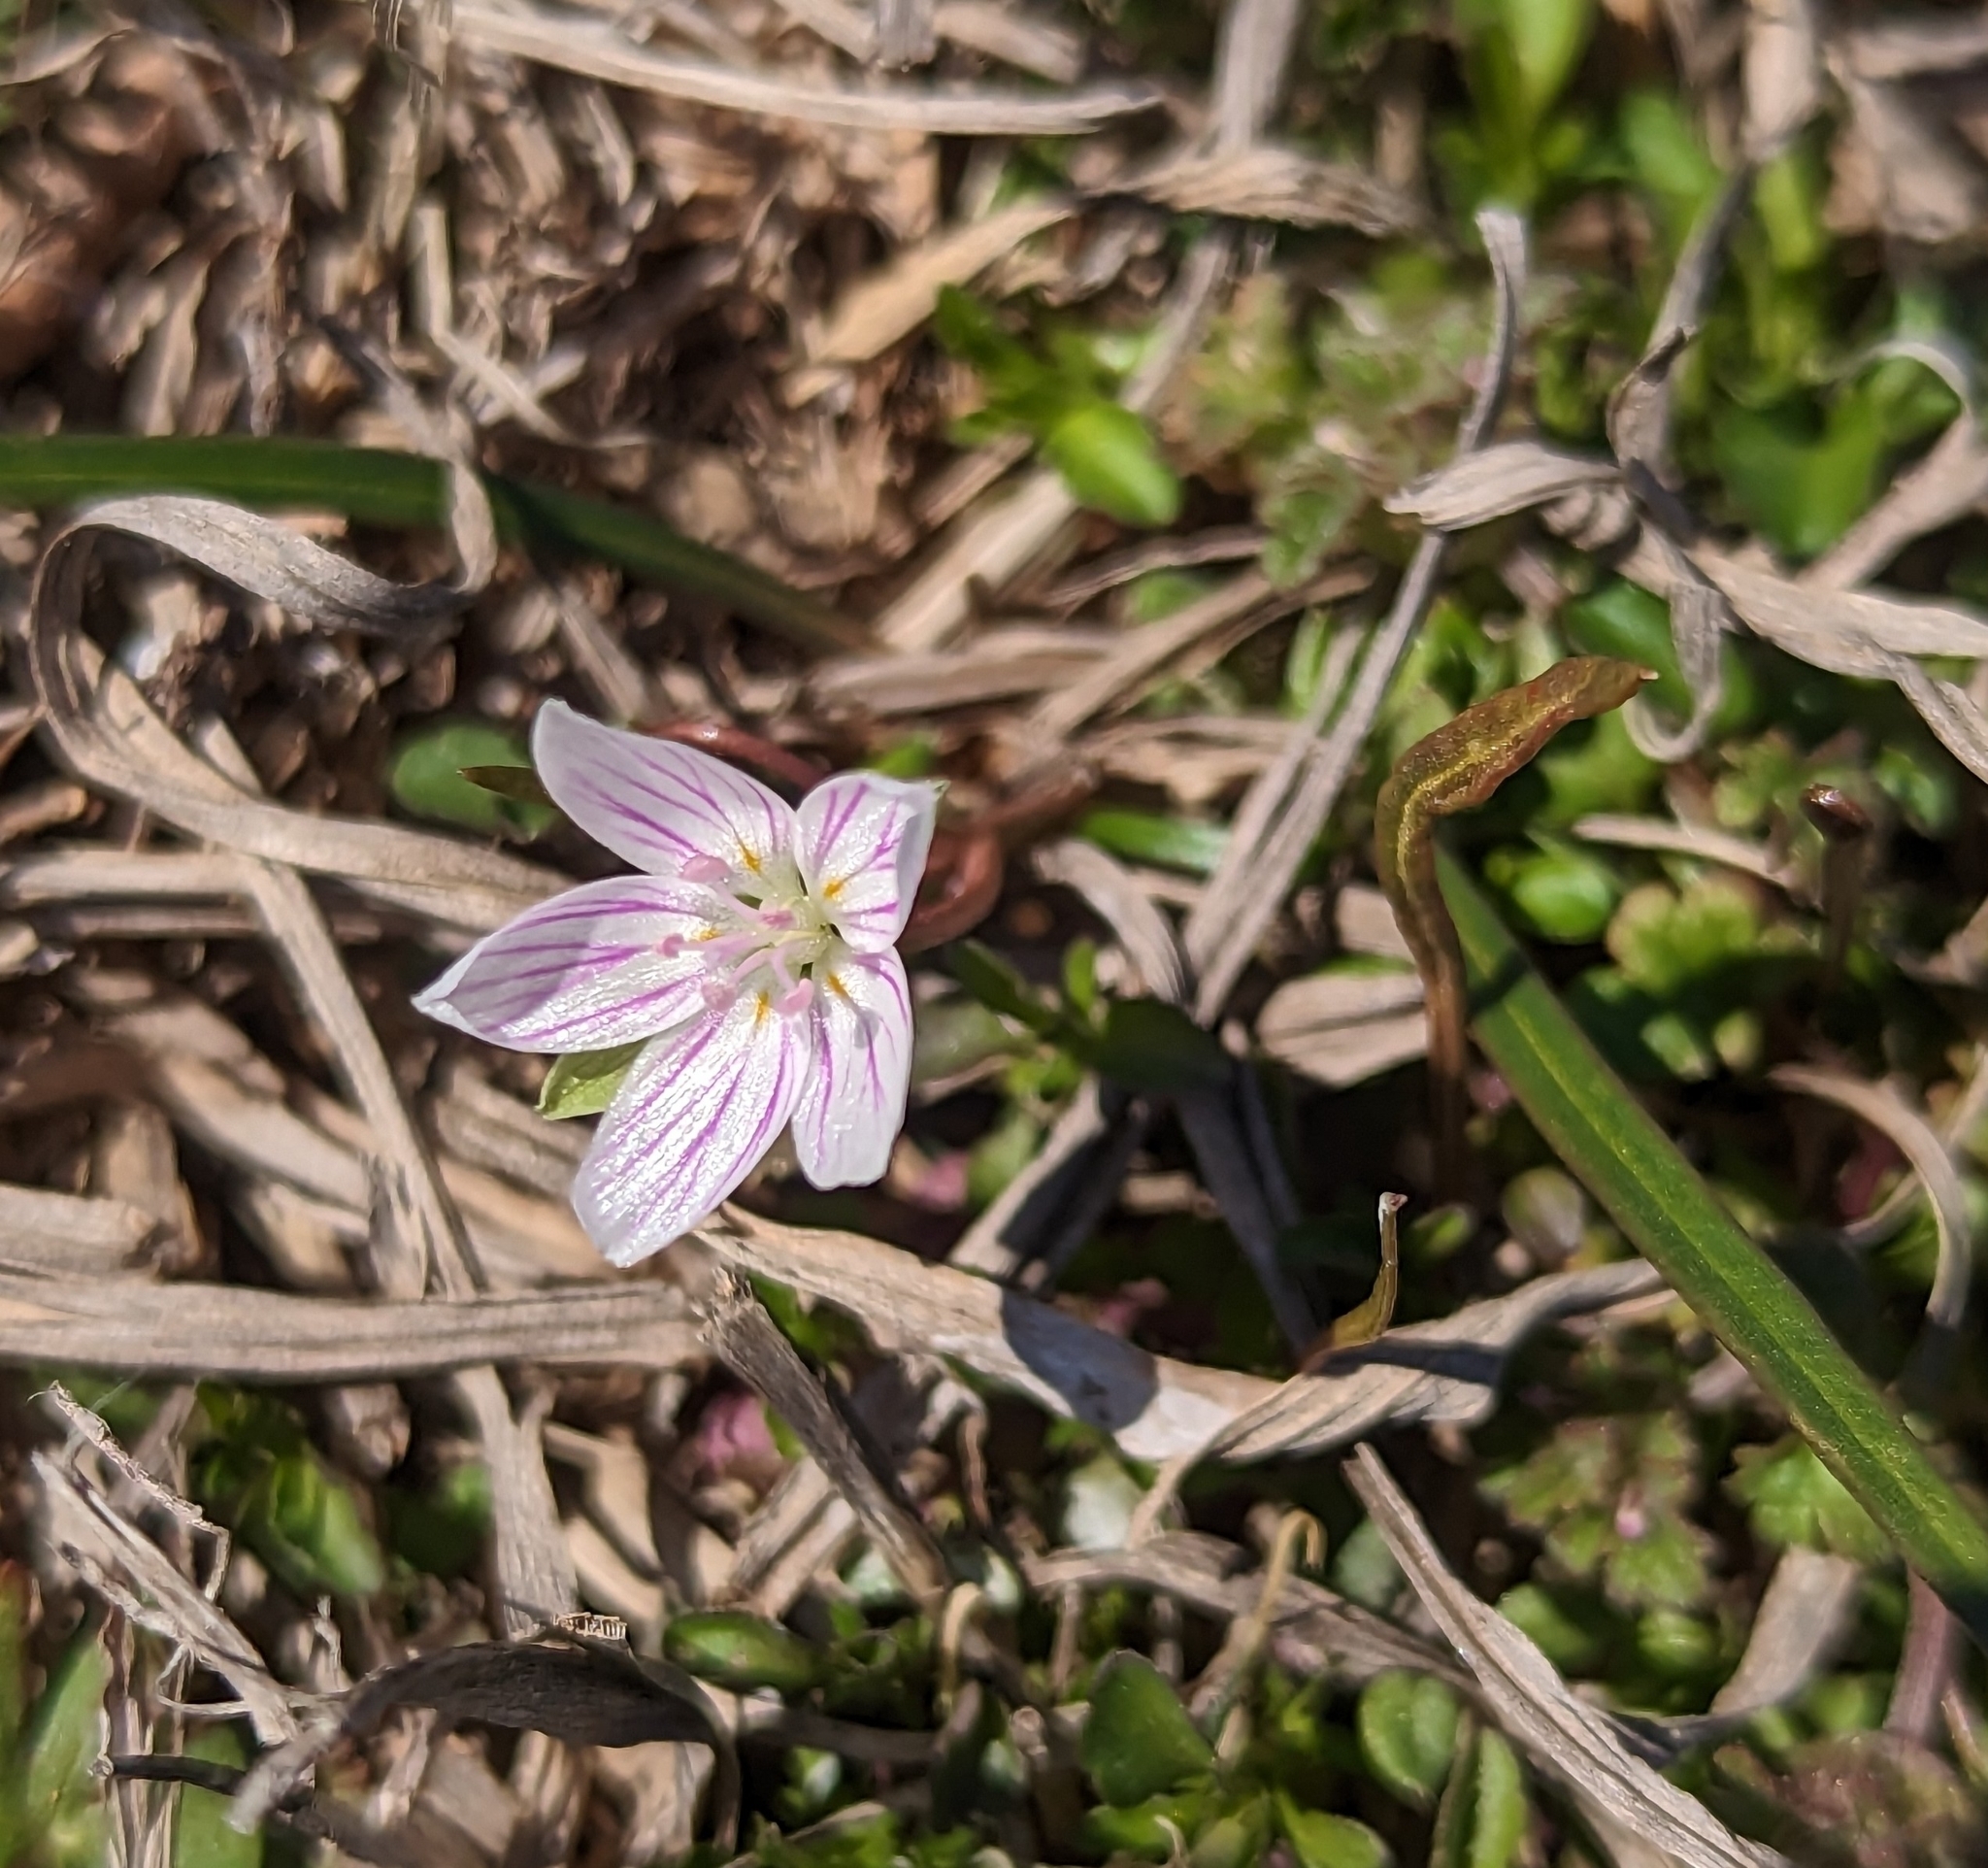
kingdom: Plantae
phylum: Tracheophyta
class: Magnoliopsida
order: Caryophyllales
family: Montiaceae
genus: Claytonia
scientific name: Claytonia virginica
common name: Virginia springbeauty
